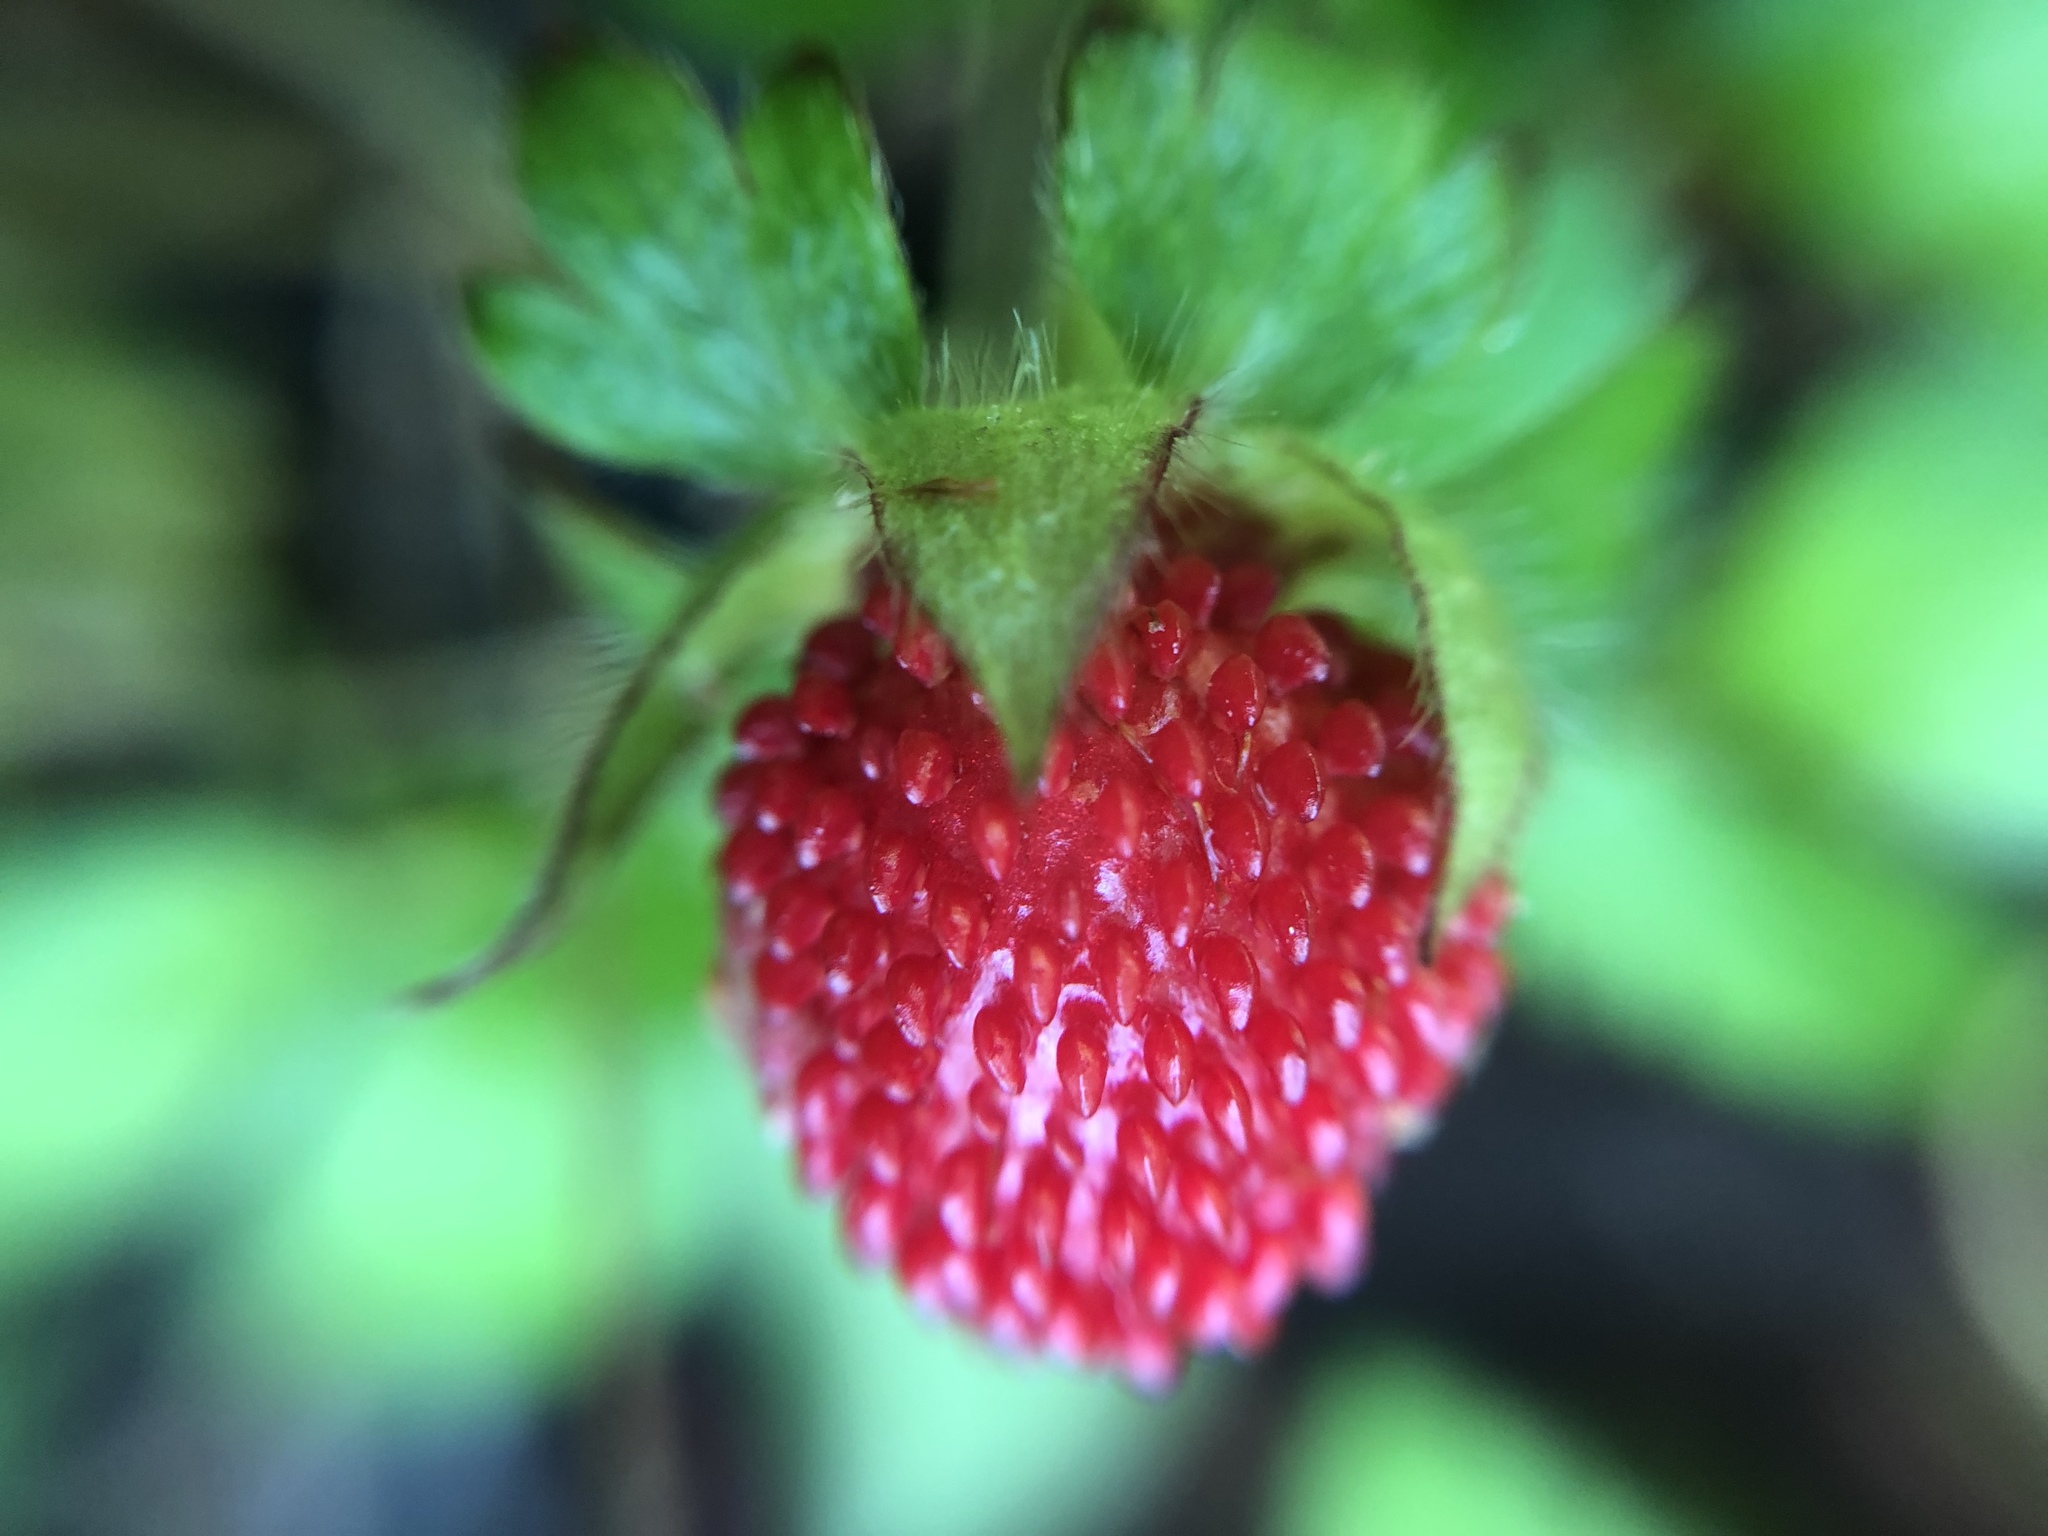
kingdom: Plantae
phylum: Tracheophyta
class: Magnoliopsida
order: Rosales
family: Rosaceae
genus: Potentilla
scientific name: Potentilla indica
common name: Yellow-flowered strawberry
